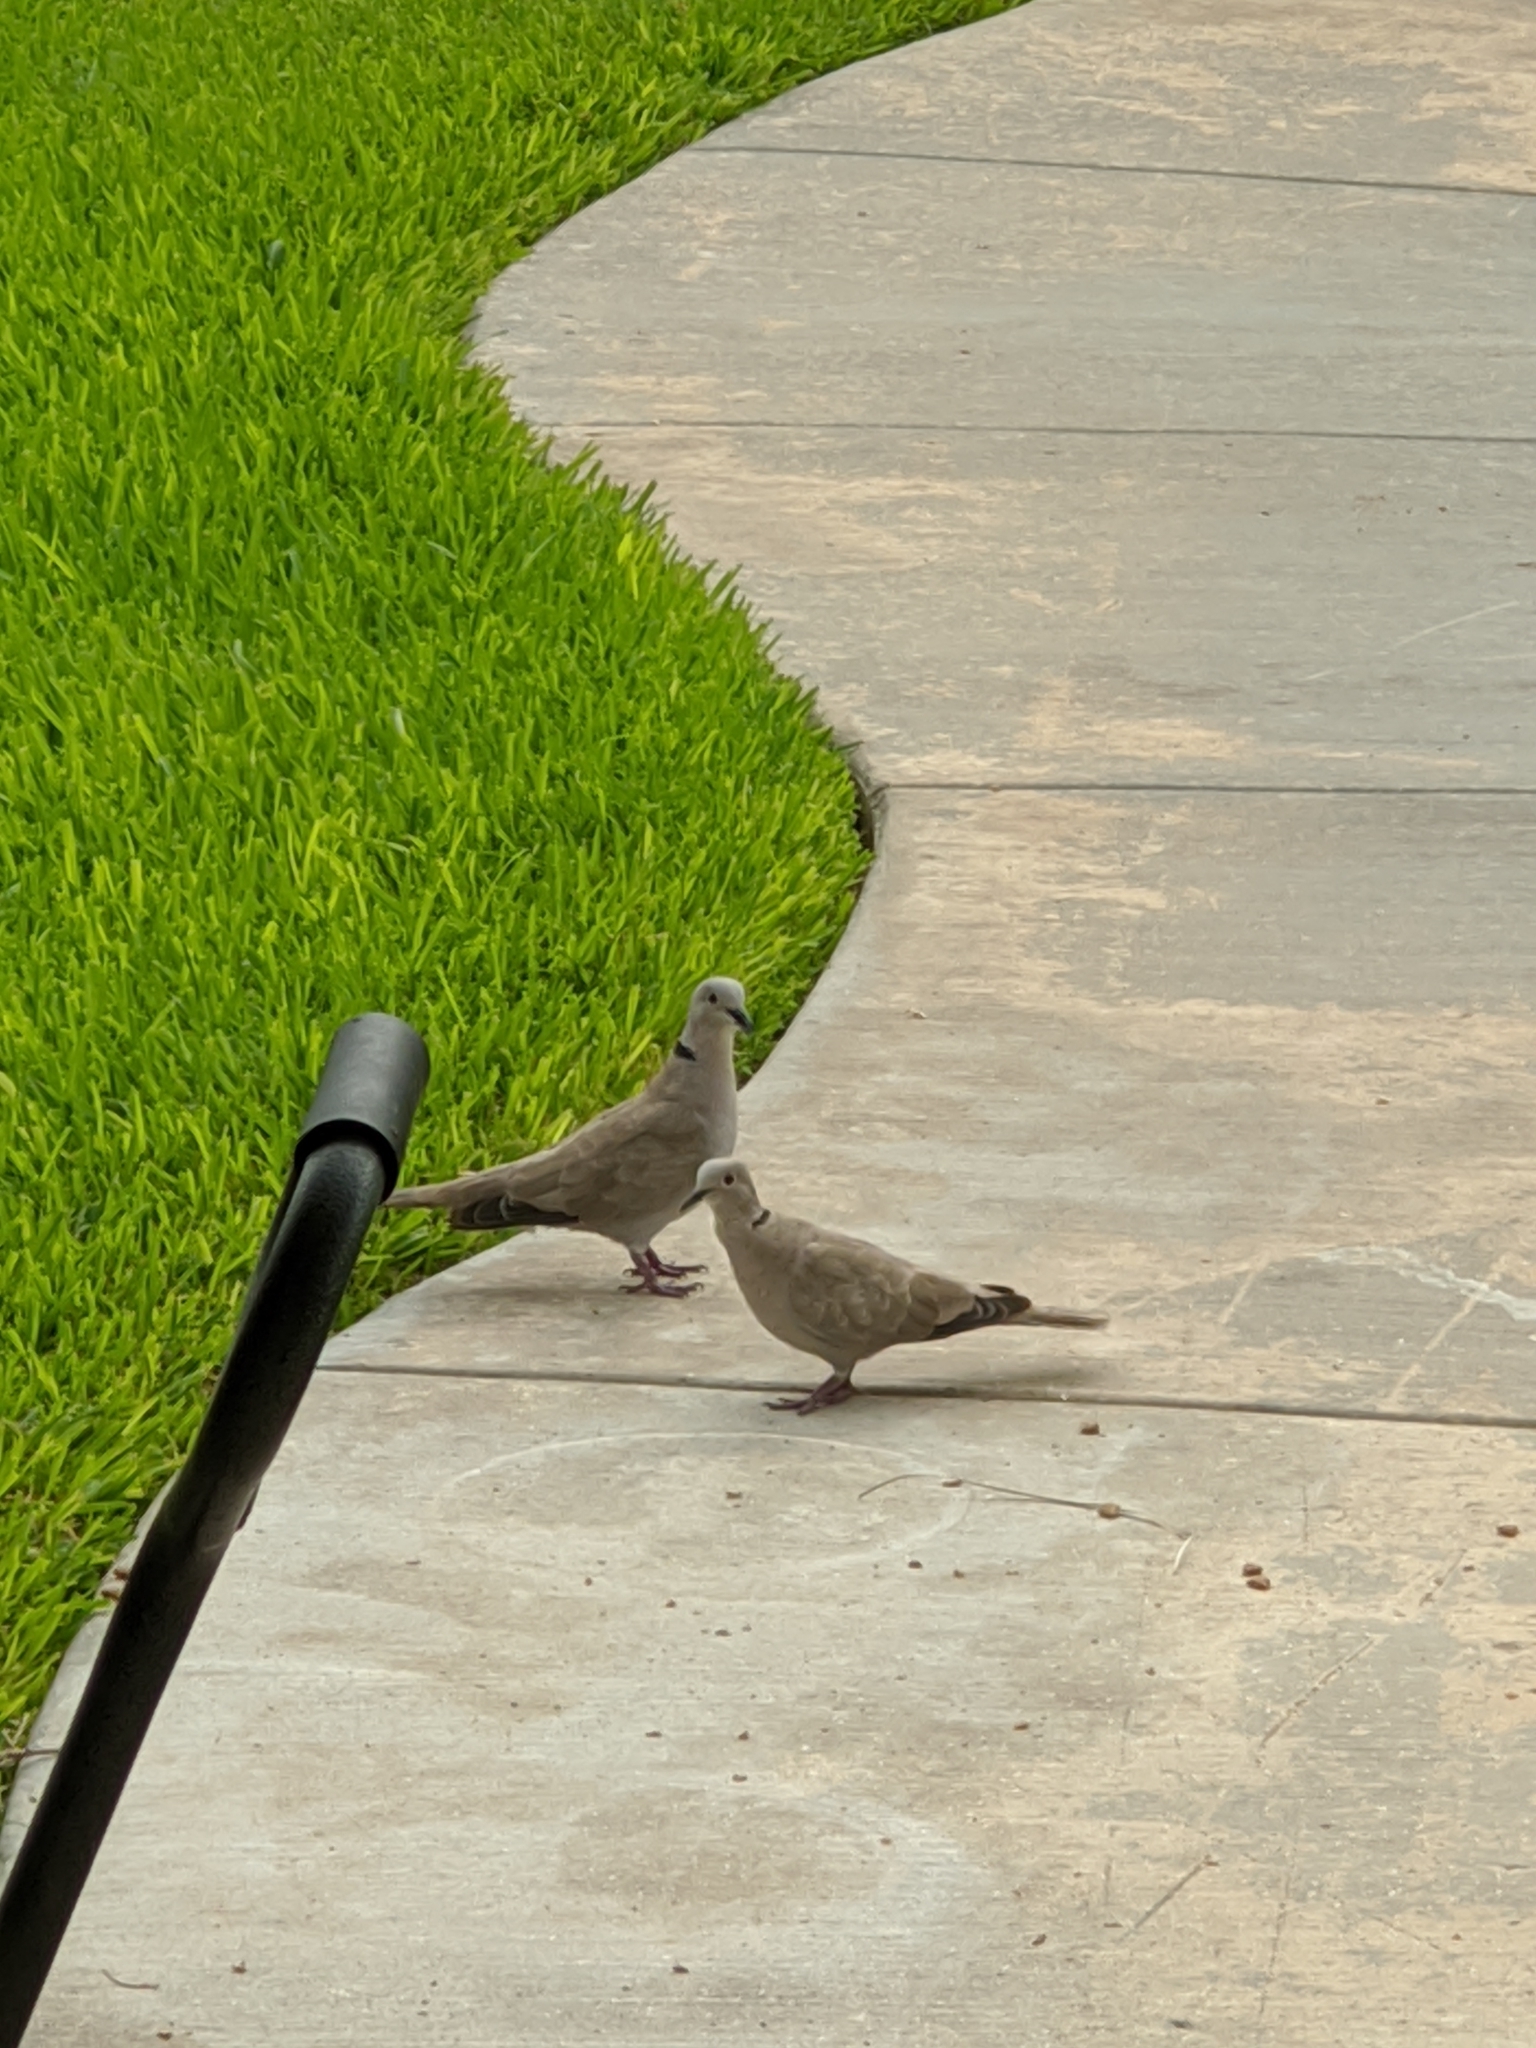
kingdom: Animalia
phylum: Chordata
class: Aves
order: Columbiformes
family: Columbidae
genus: Streptopelia
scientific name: Streptopelia decaocto
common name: Eurasian collared dove
